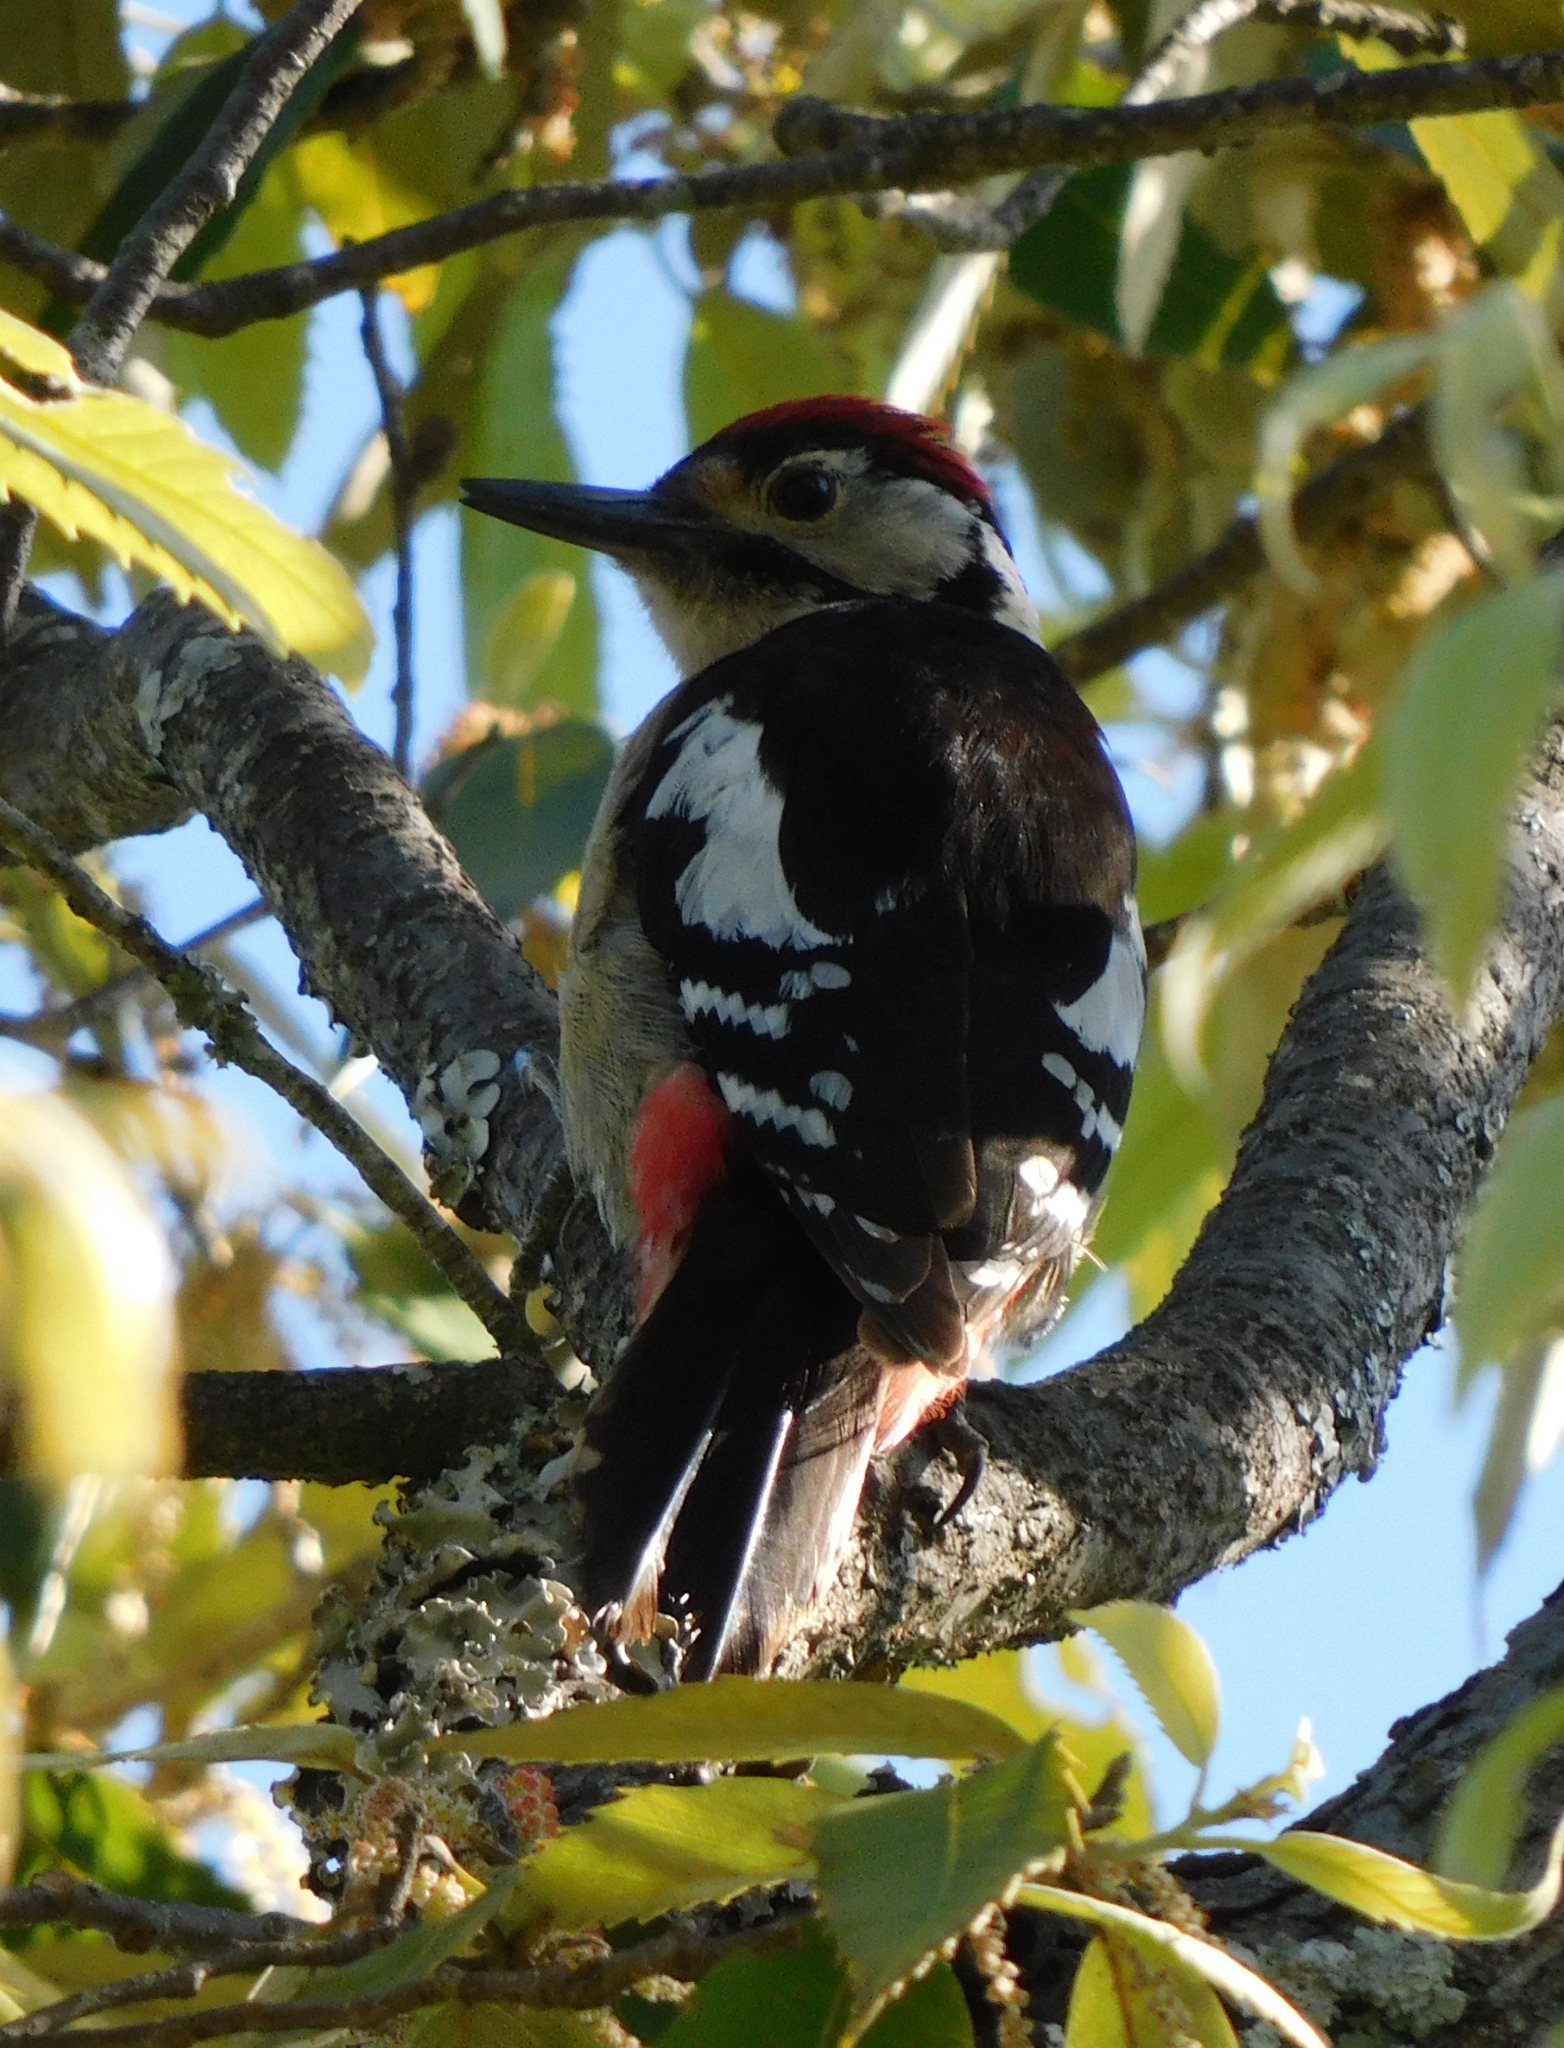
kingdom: Animalia
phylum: Chordata
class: Aves
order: Piciformes
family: Picidae
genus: Dendrocopos
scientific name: Dendrocopos himalayensis
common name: Himalayan woodpecker
